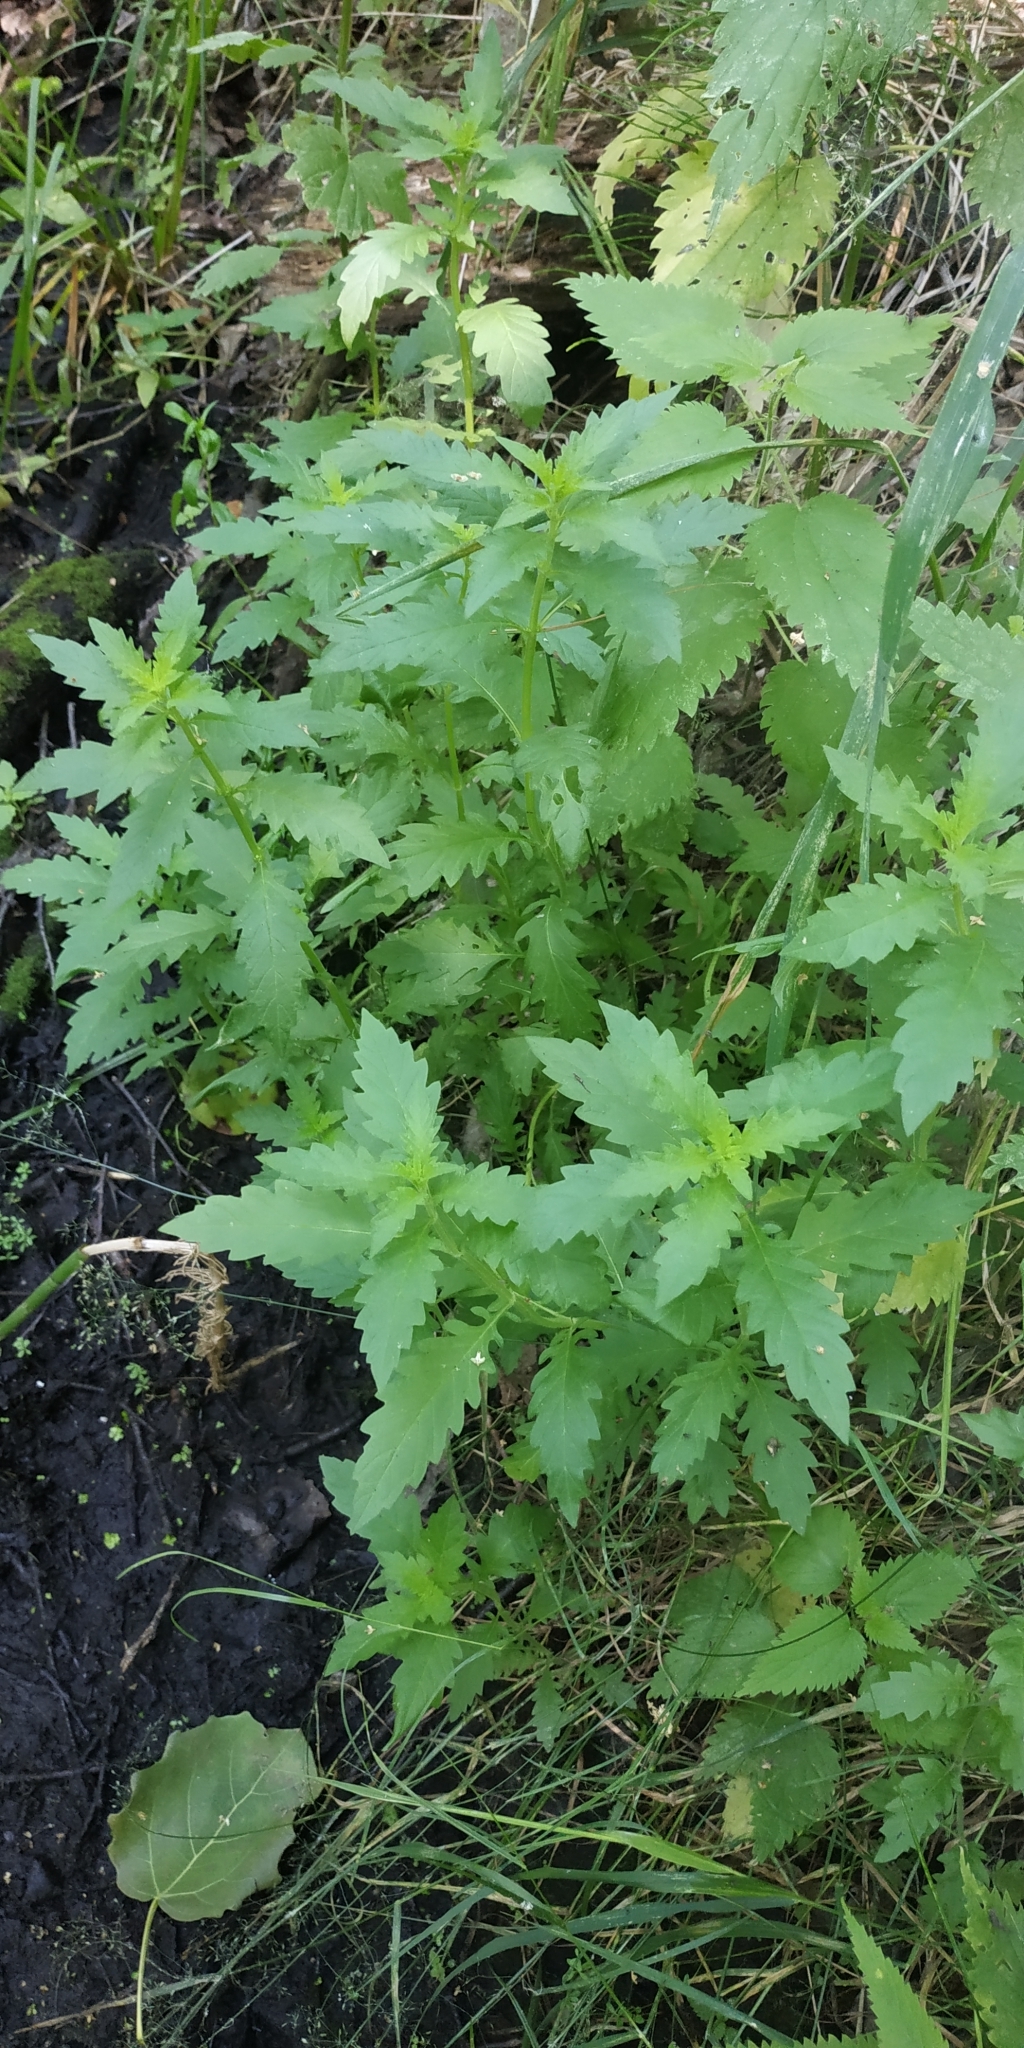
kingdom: Plantae
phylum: Tracheophyta
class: Magnoliopsida
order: Lamiales
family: Lamiaceae
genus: Lycopus
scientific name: Lycopus europaeus
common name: European bugleweed
